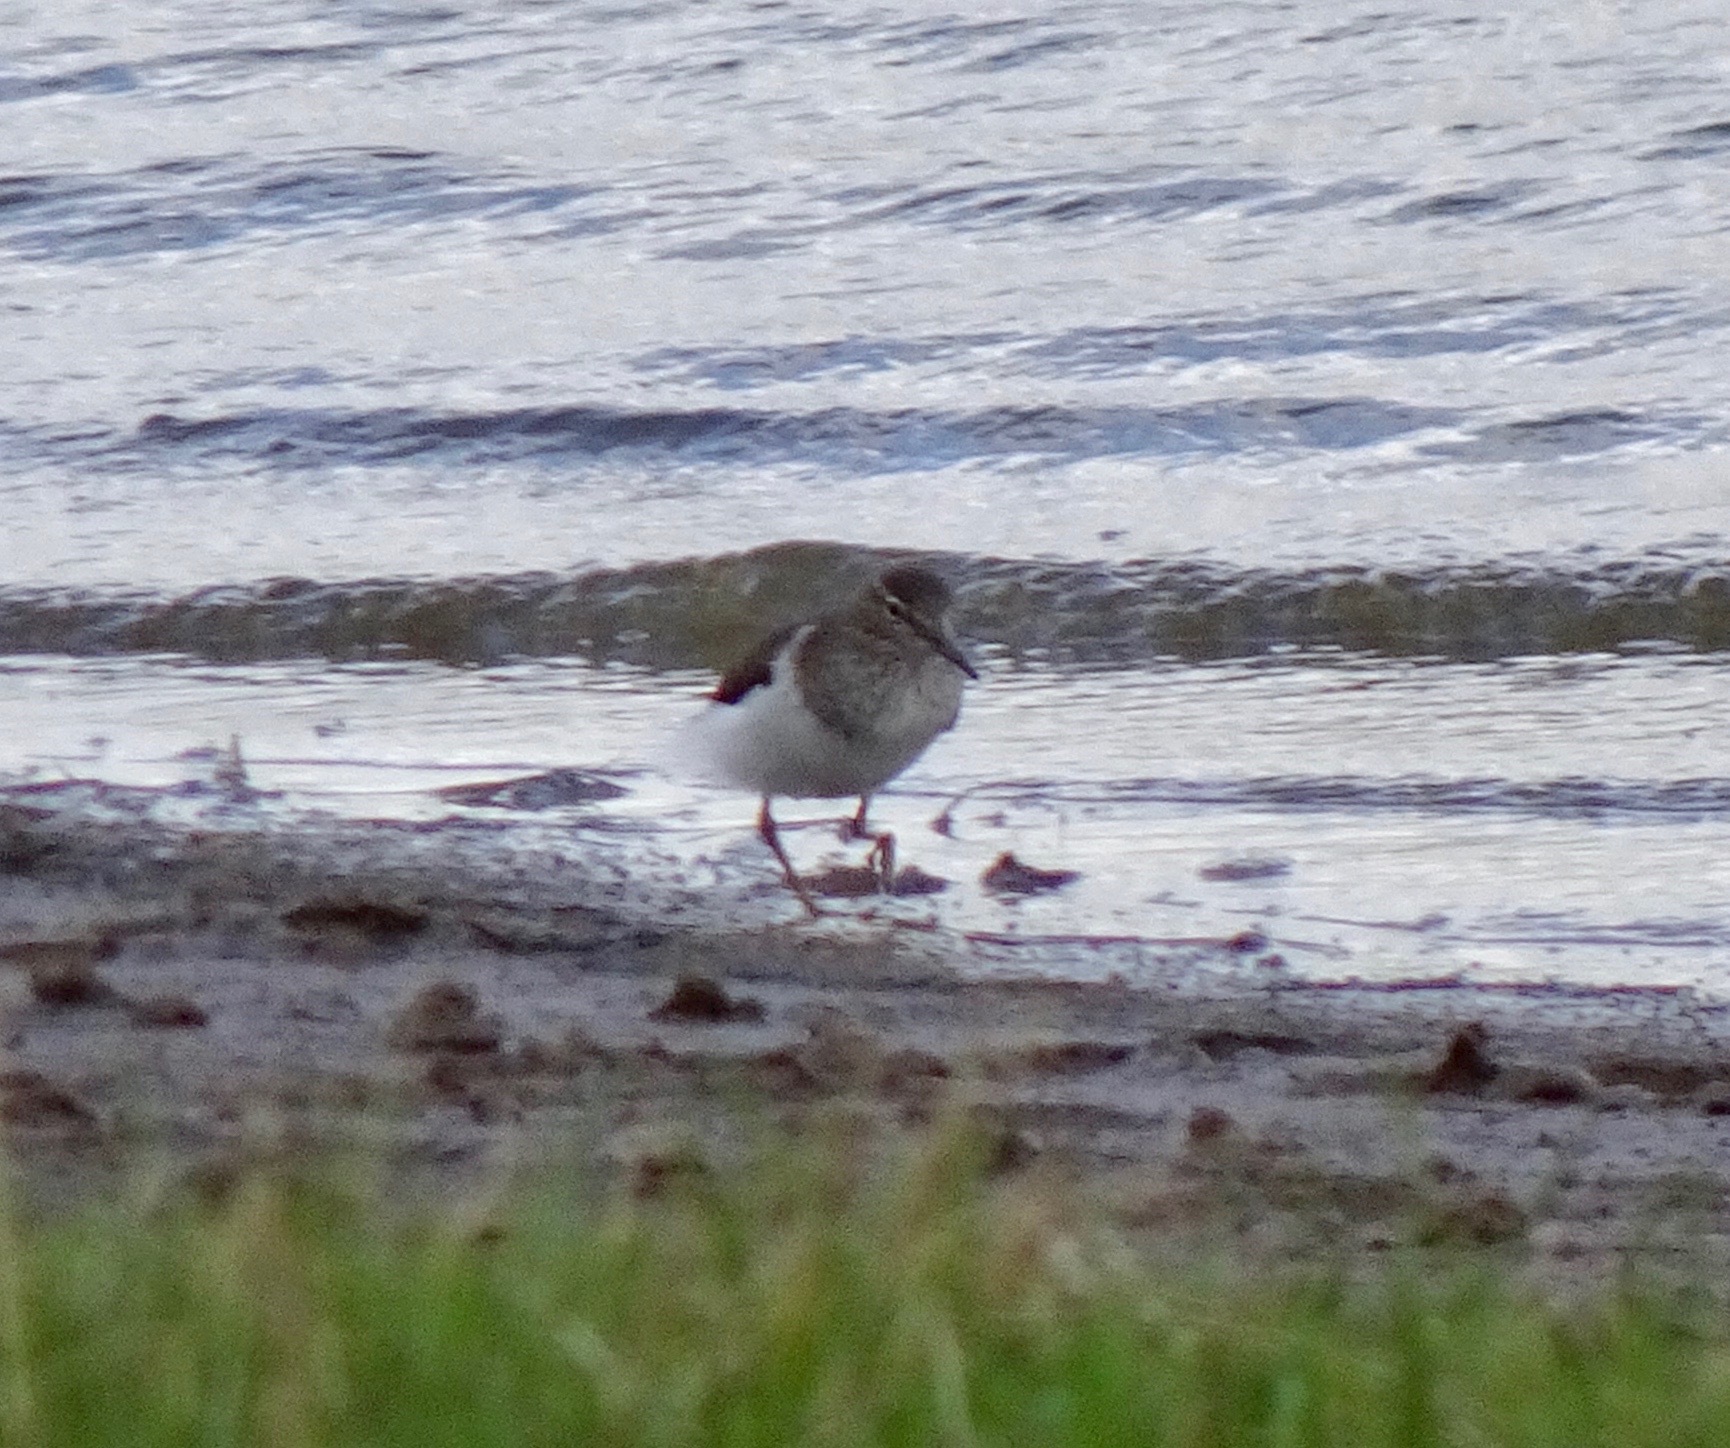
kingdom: Animalia
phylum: Chordata
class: Aves
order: Charadriiformes
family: Scolopacidae
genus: Actitis
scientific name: Actitis hypoleucos
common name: Common sandpiper
